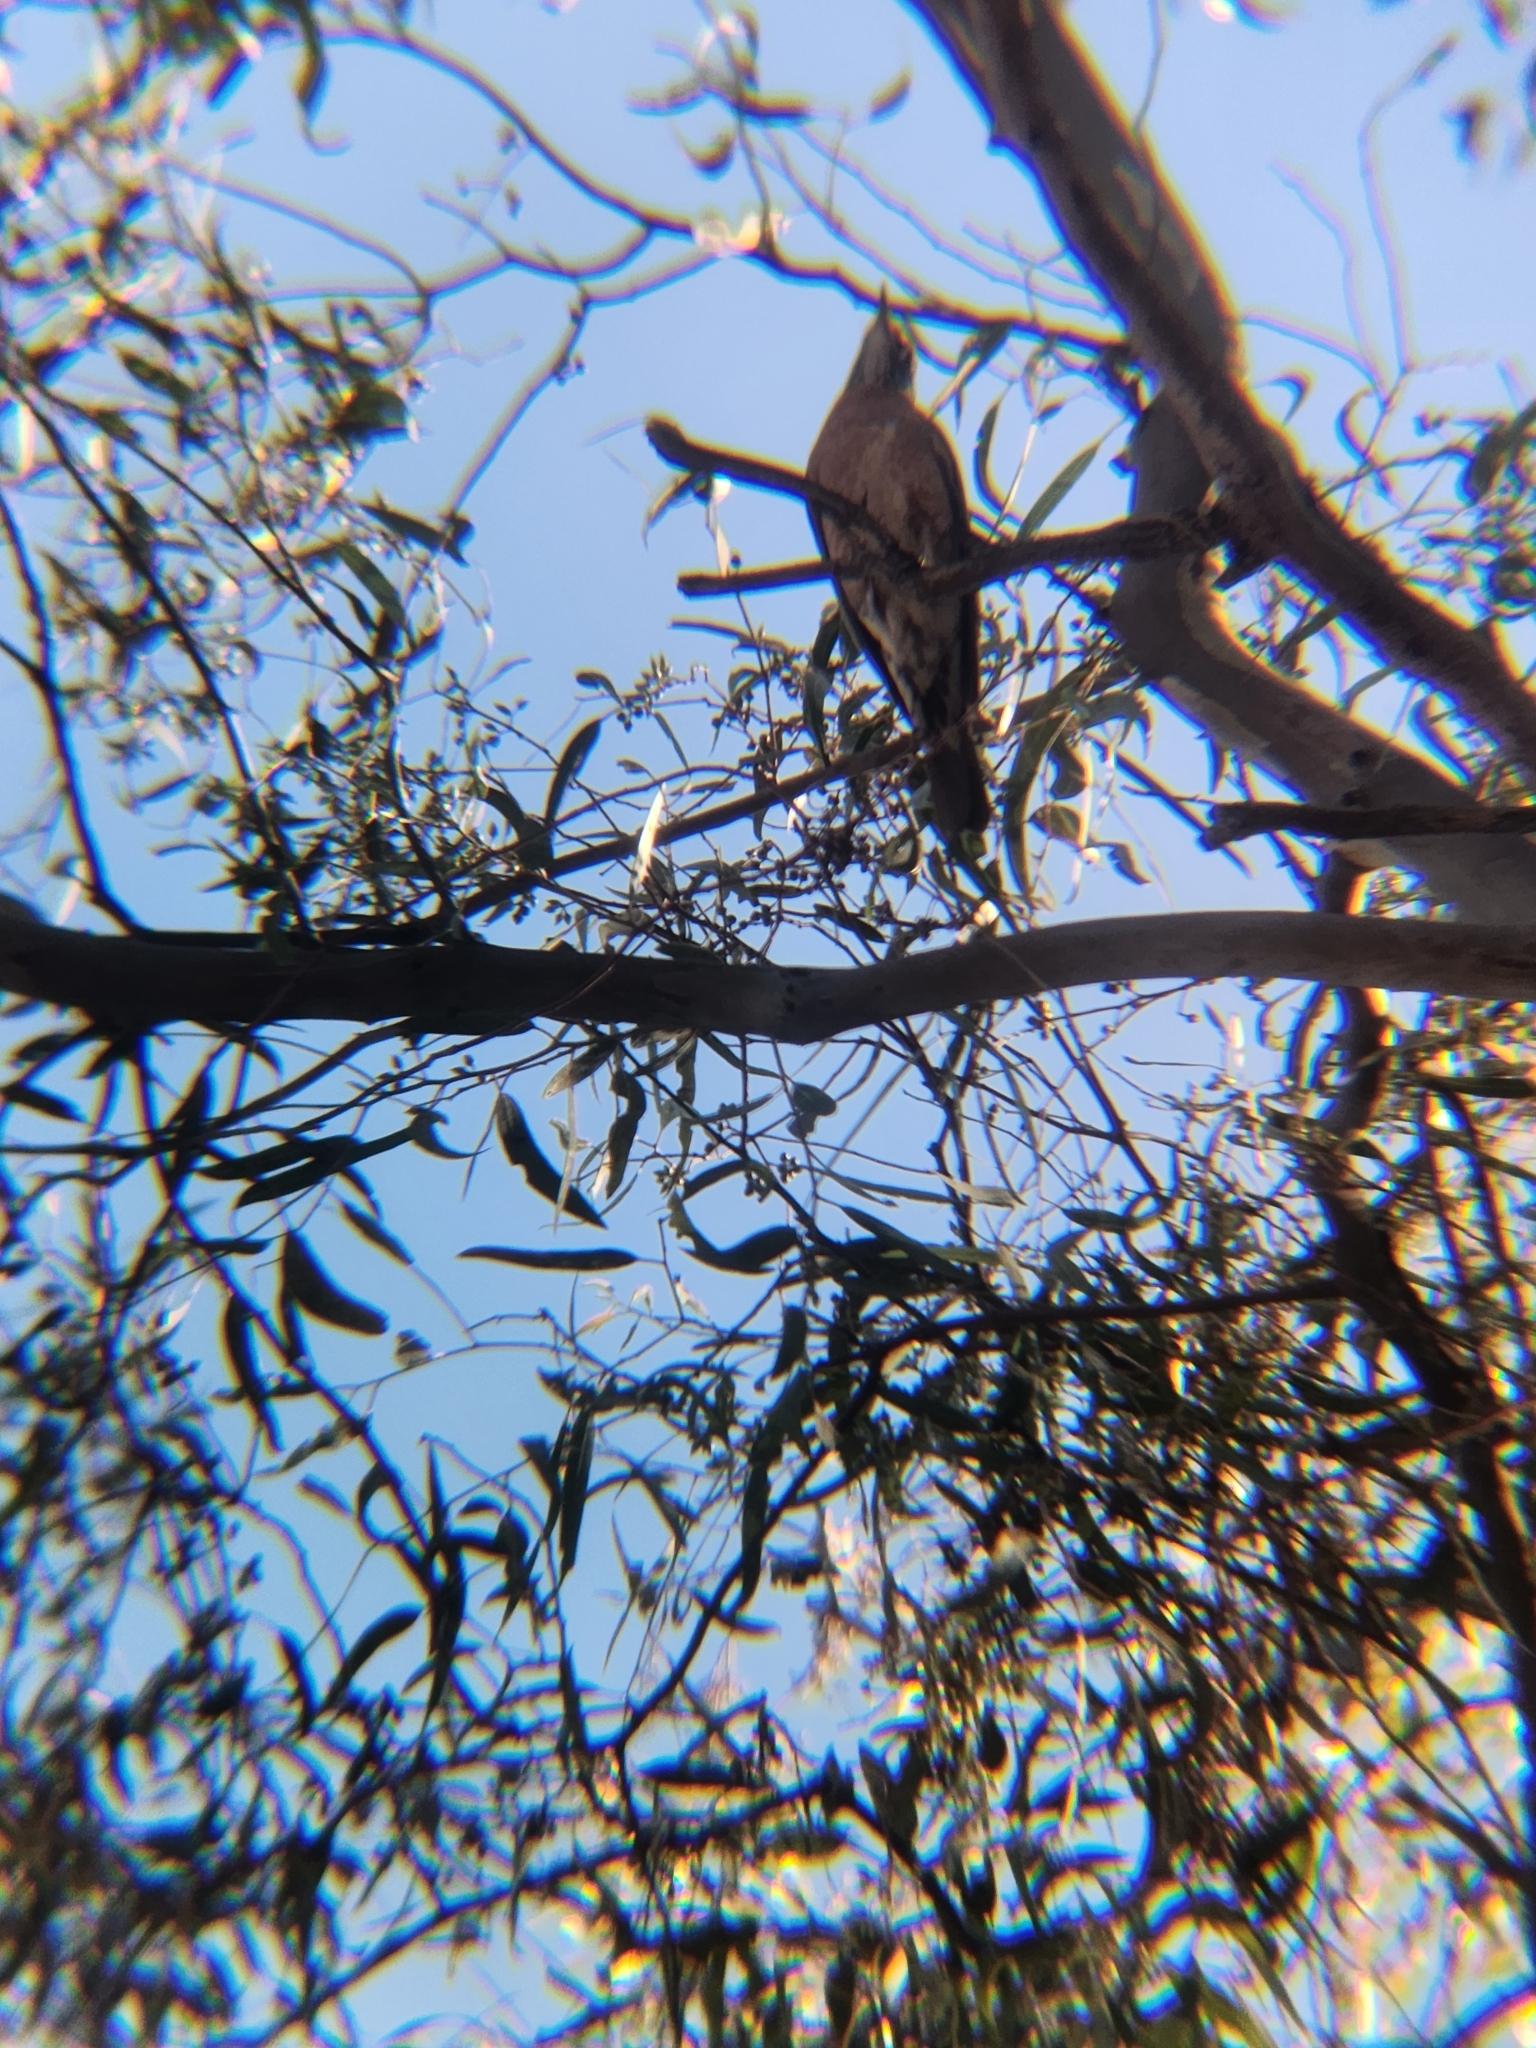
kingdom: Animalia
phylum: Chordata
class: Aves
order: Passeriformes
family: Turdidae
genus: Turdus
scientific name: Turdus migratorius
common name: American robin
